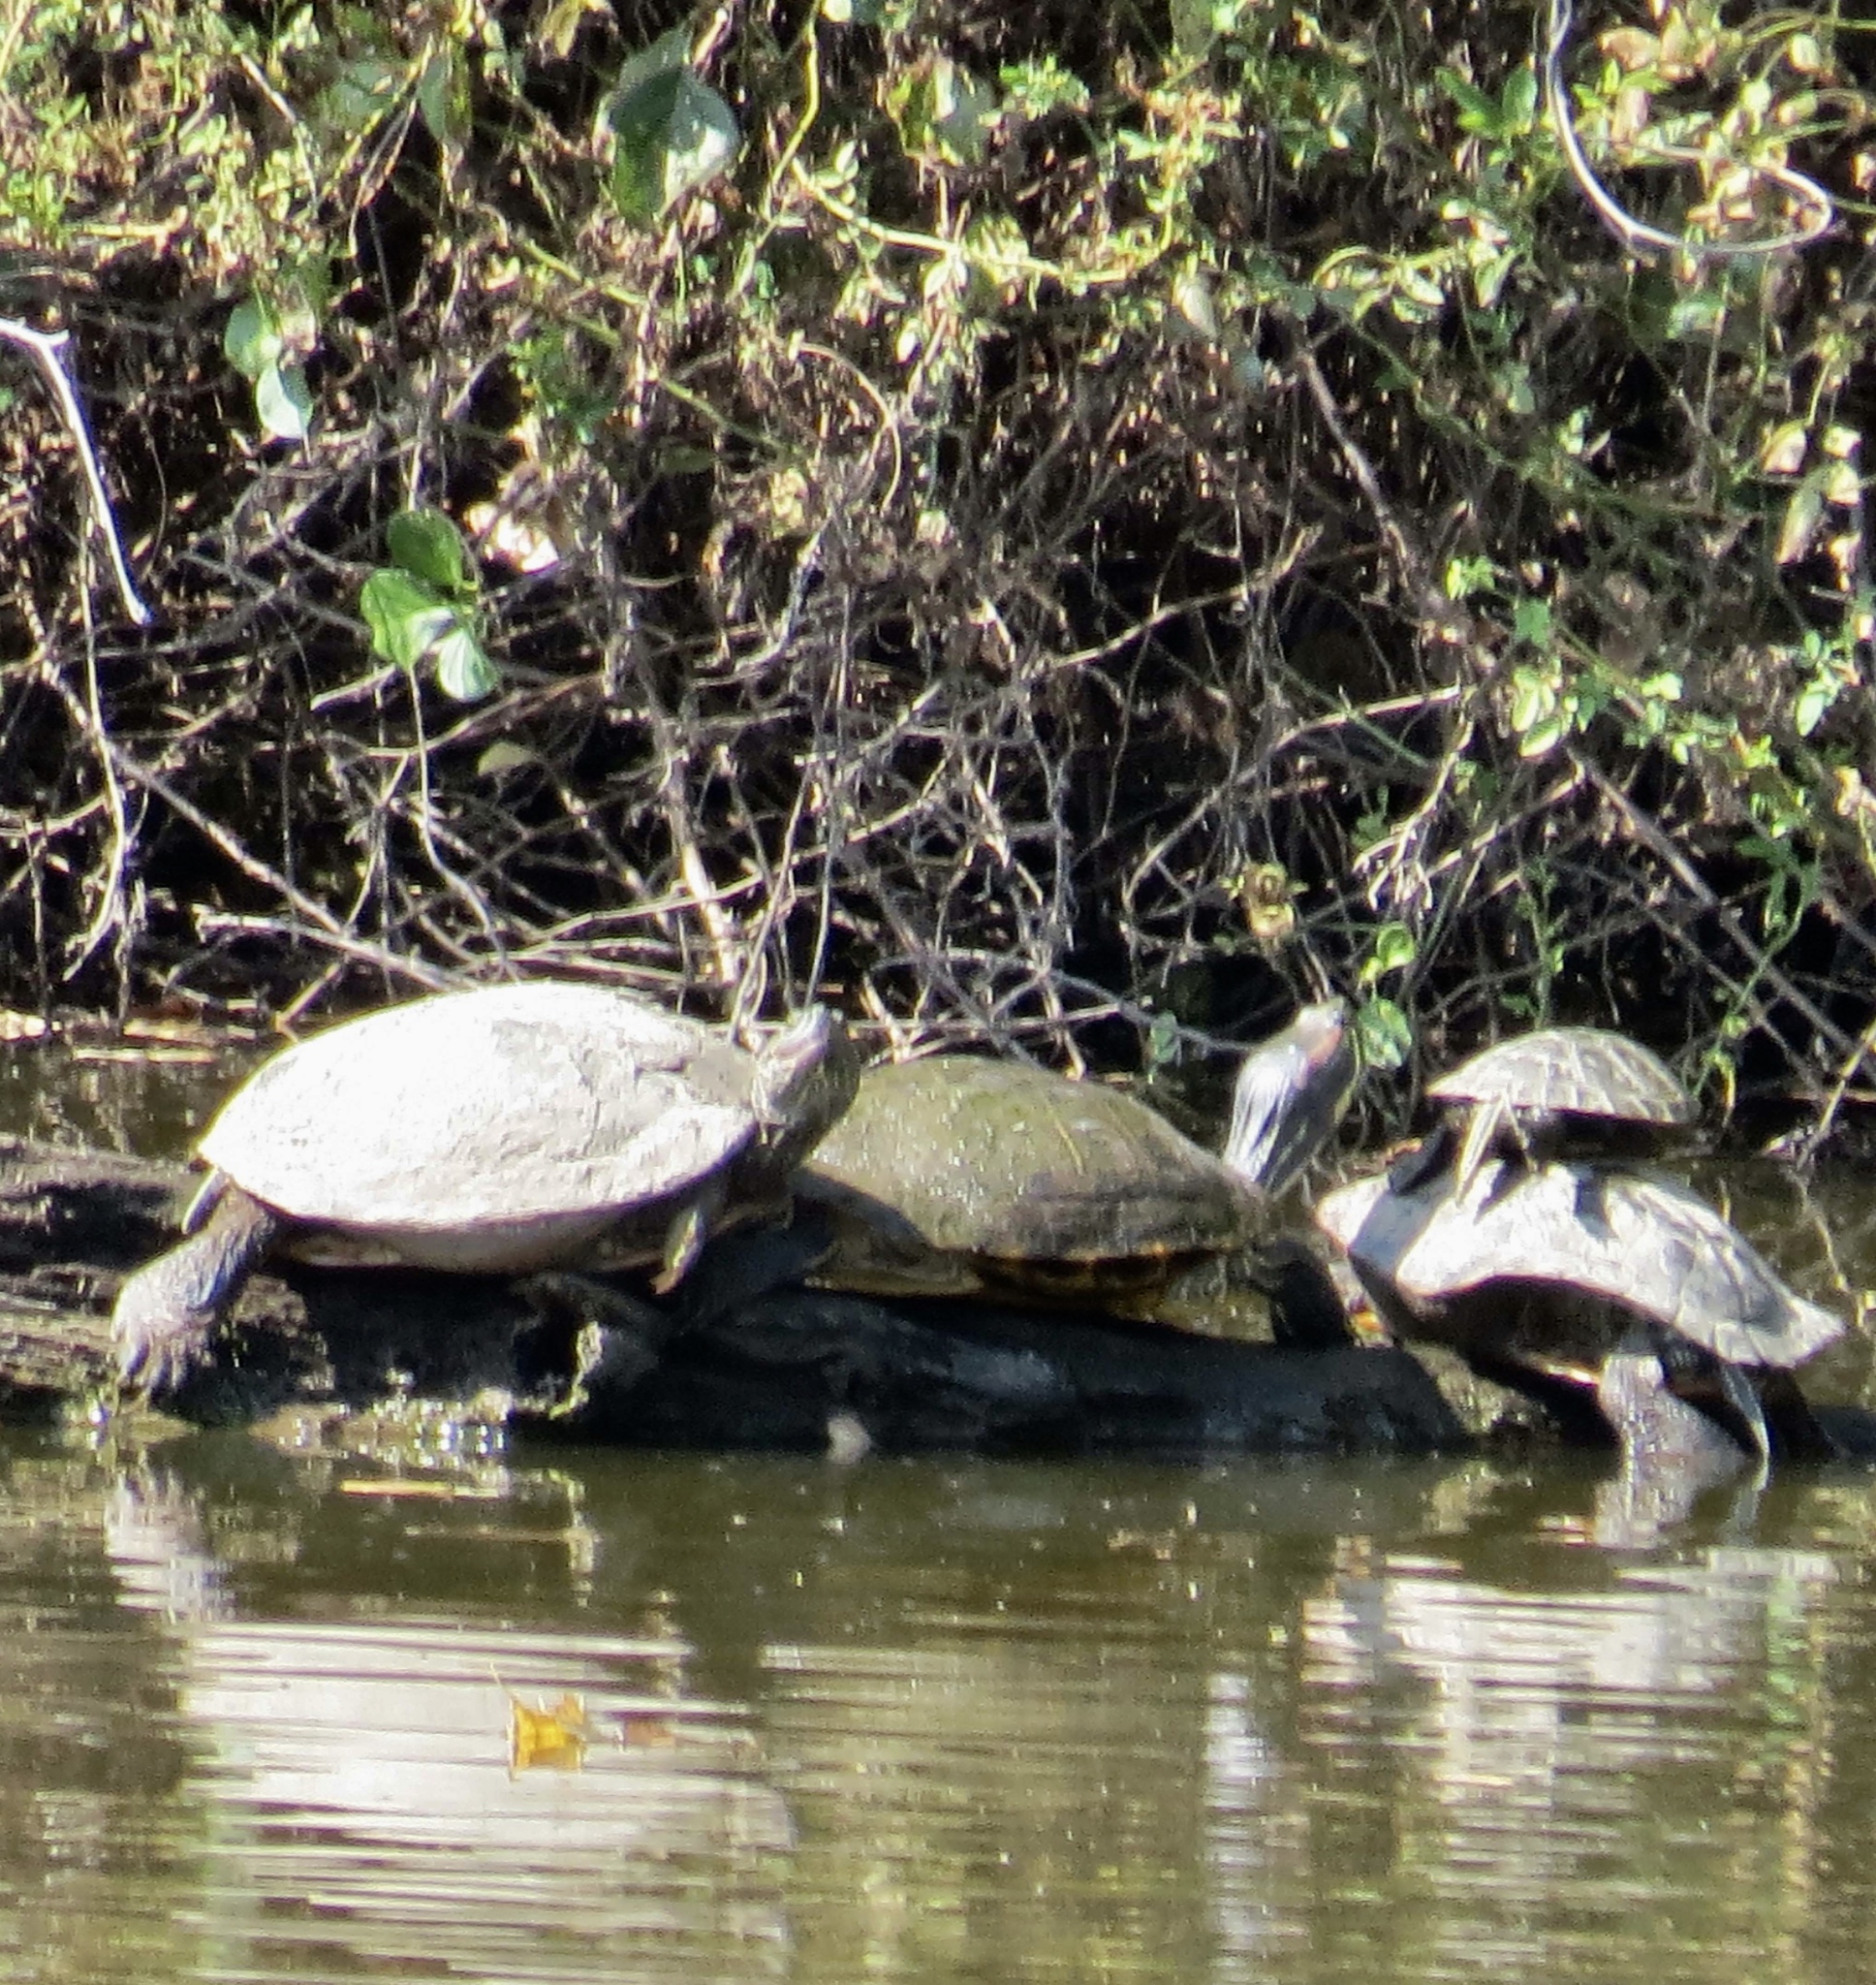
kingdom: Animalia
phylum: Chordata
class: Testudines
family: Emydidae
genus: Trachemys
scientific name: Trachemys scripta
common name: Slider
